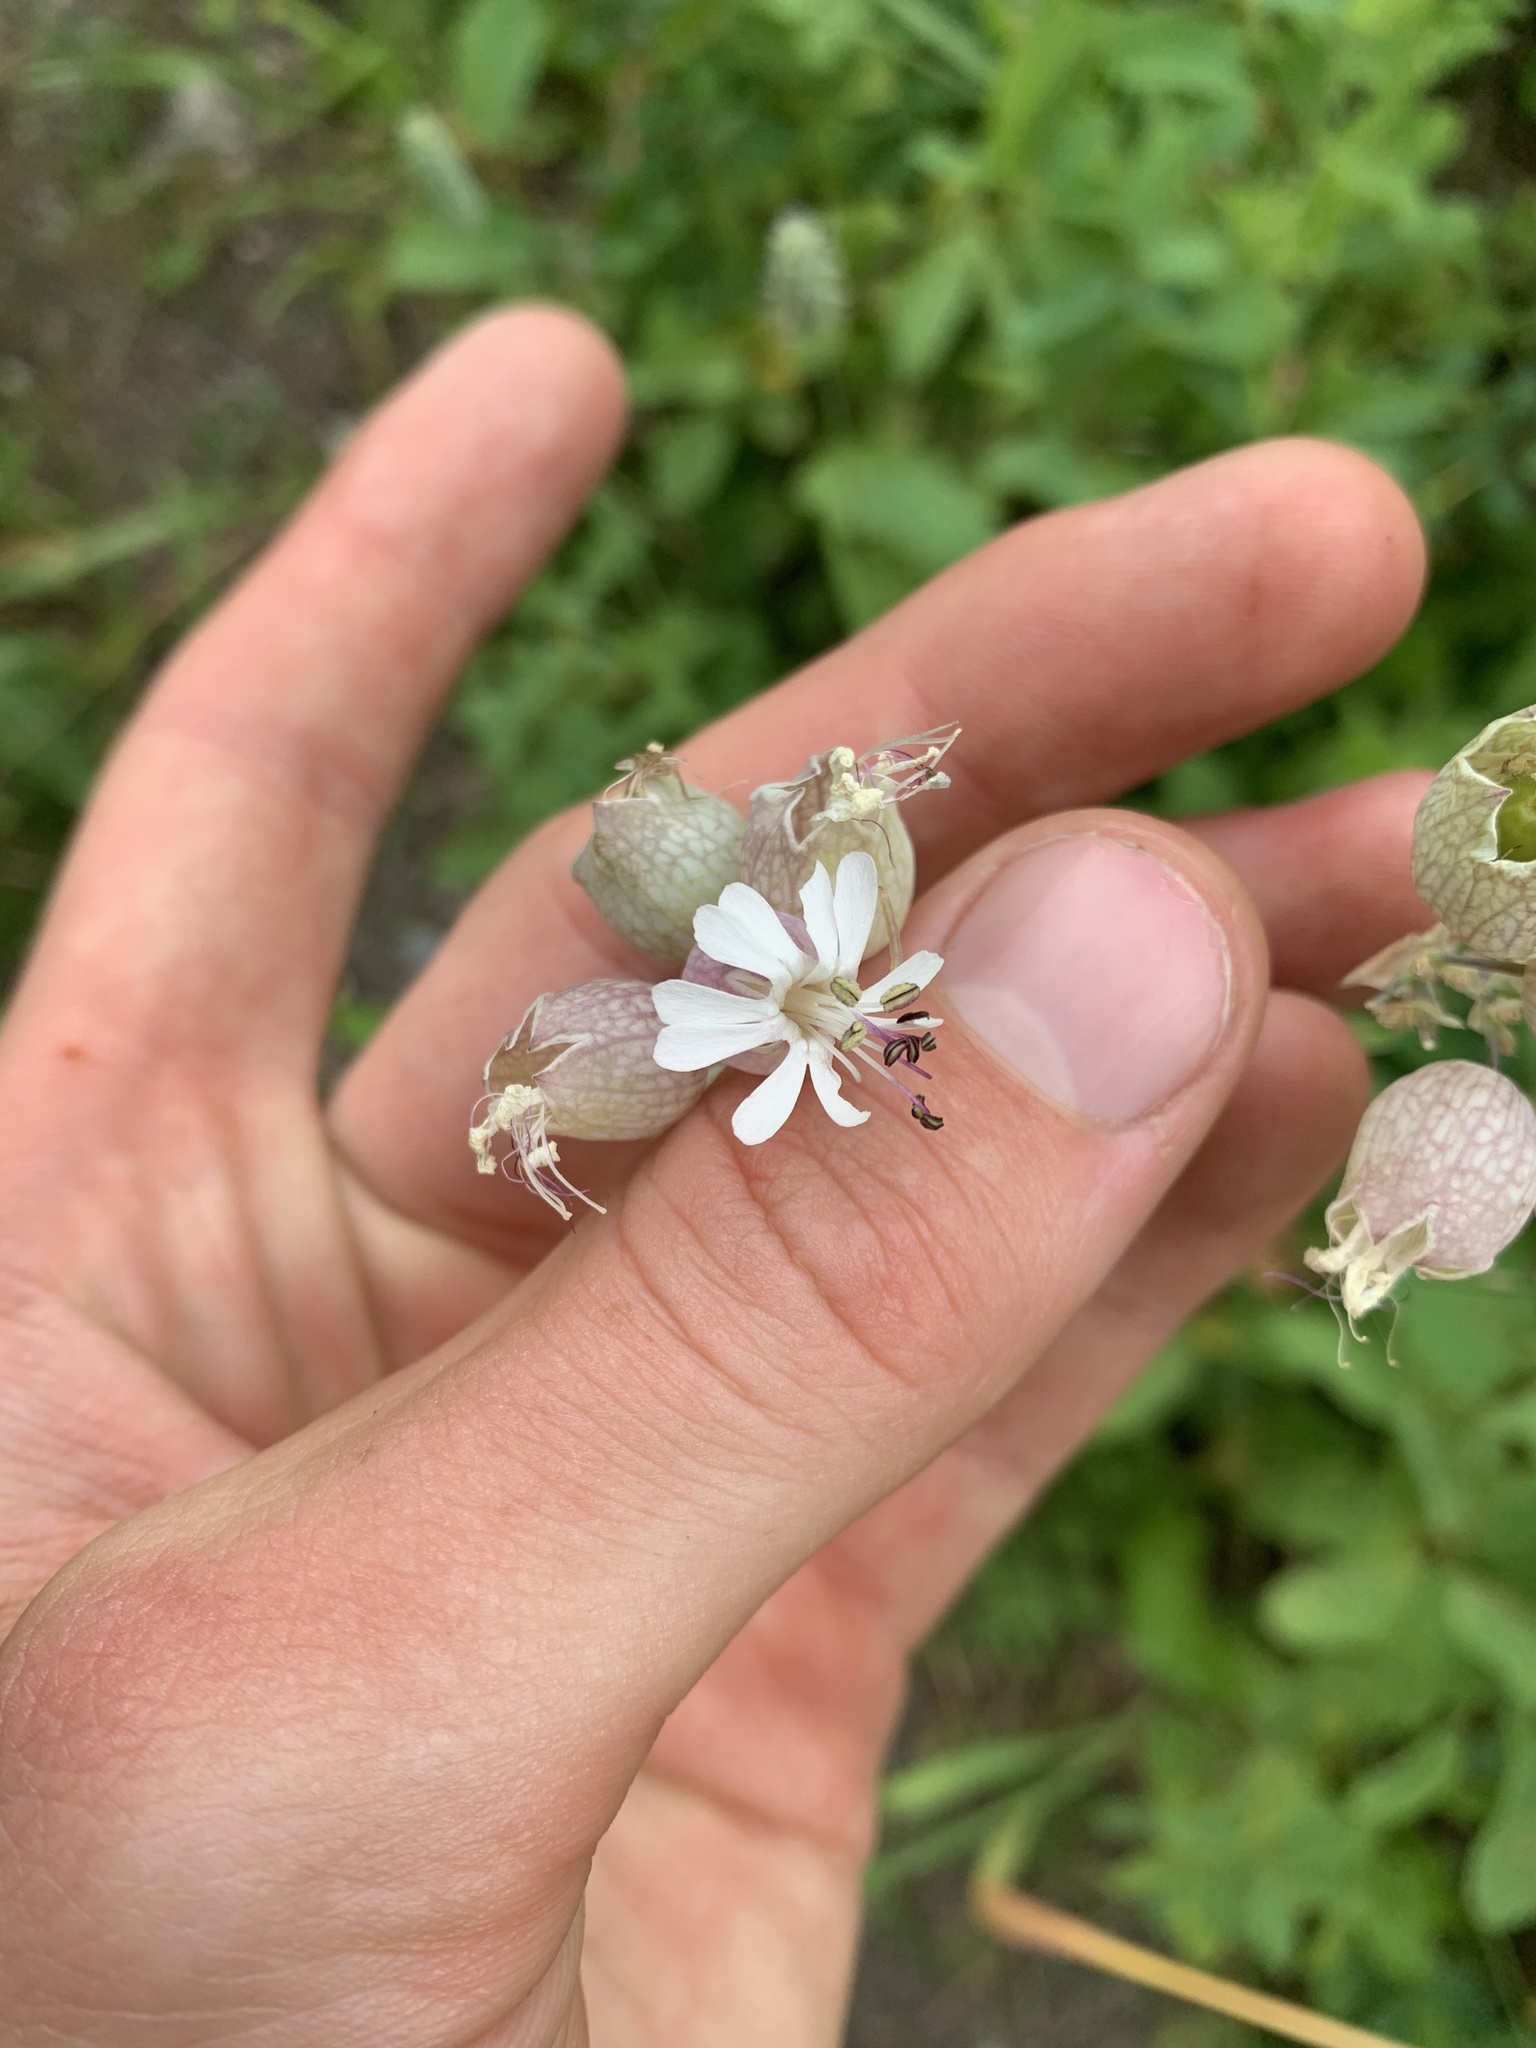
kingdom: Plantae
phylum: Tracheophyta
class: Magnoliopsida
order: Caryophyllales
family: Caryophyllaceae
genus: Silene
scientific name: Silene vulgaris
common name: Bladder campion
